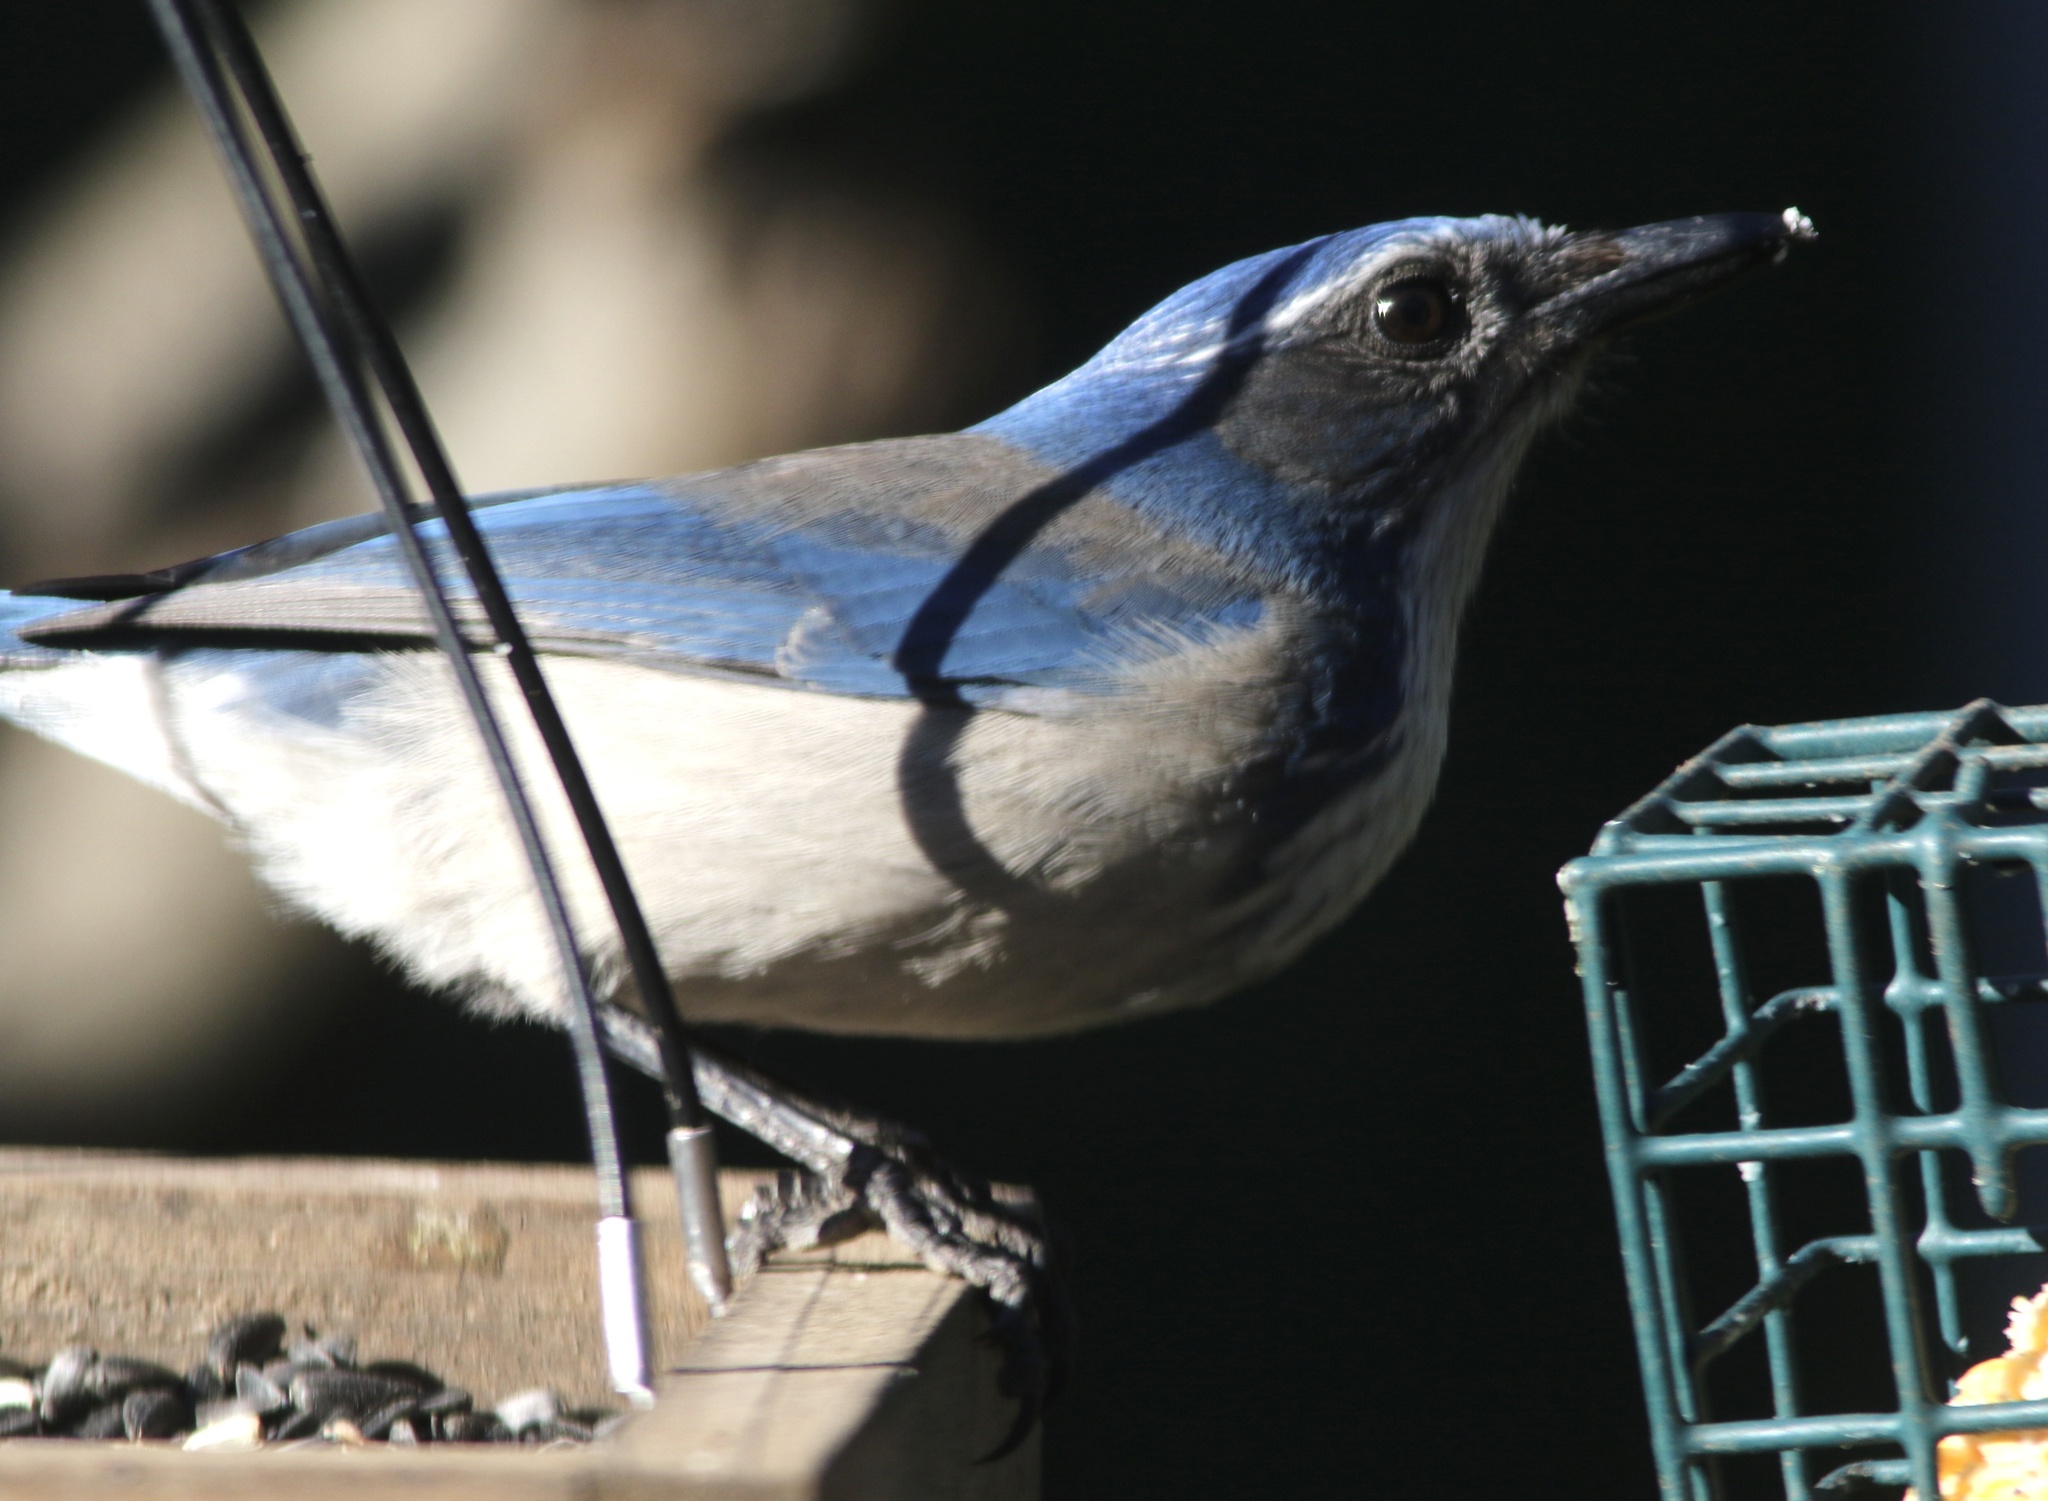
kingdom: Animalia
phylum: Chordata
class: Aves
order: Passeriformes
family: Corvidae
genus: Aphelocoma
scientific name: Aphelocoma californica
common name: California scrub-jay
